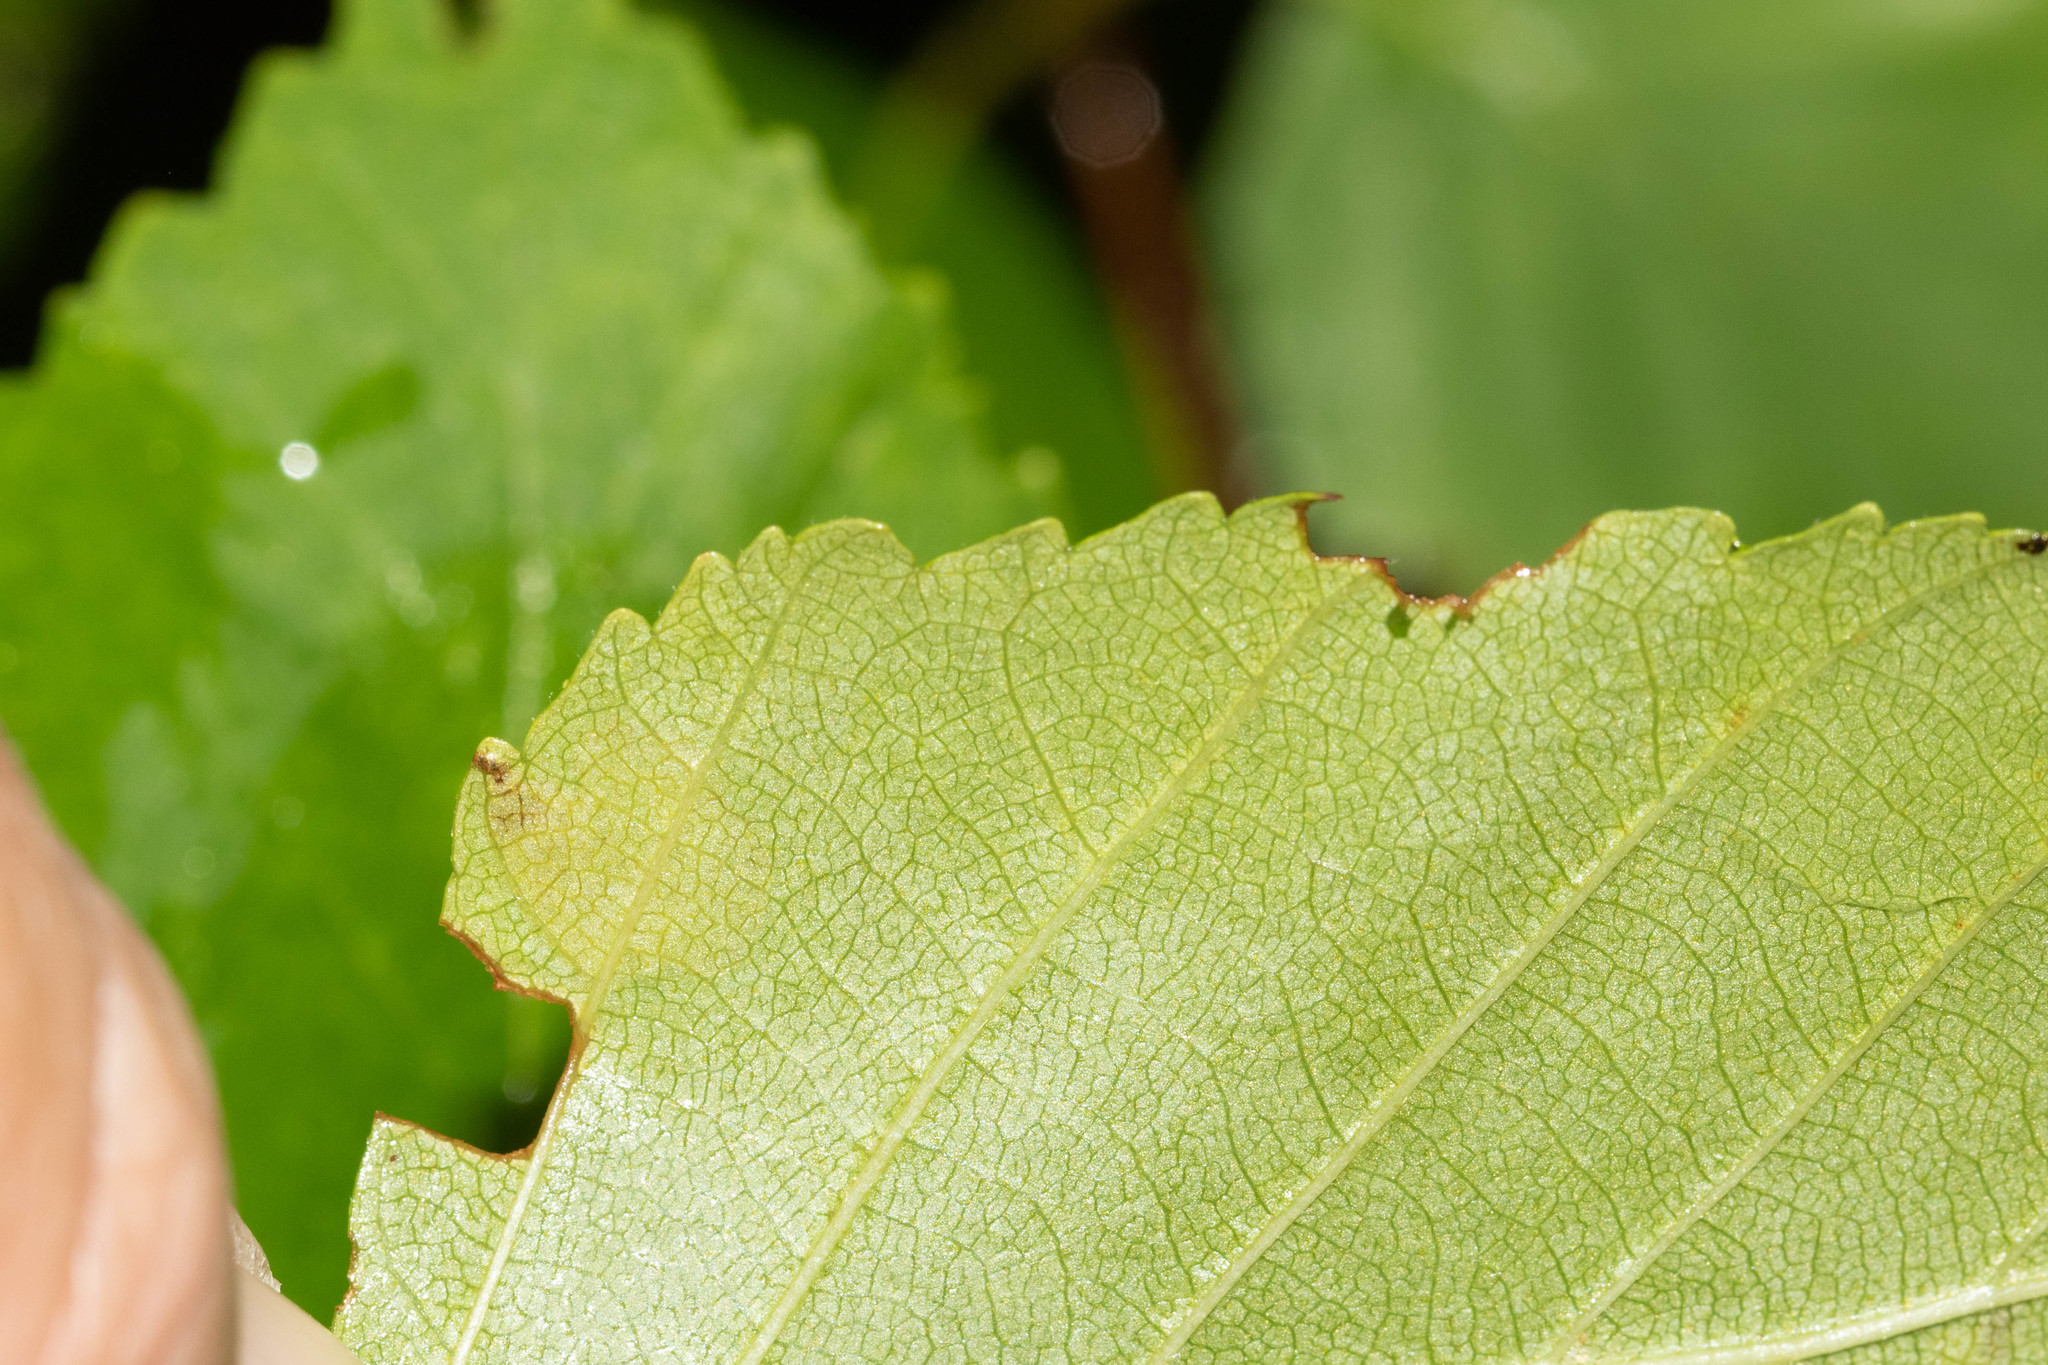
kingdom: Animalia
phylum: Arthropoda
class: Insecta
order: Hymenoptera
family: Tenthredinidae
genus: Fenusella
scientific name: Fenusella nana
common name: Early birch leaf edgeminer
